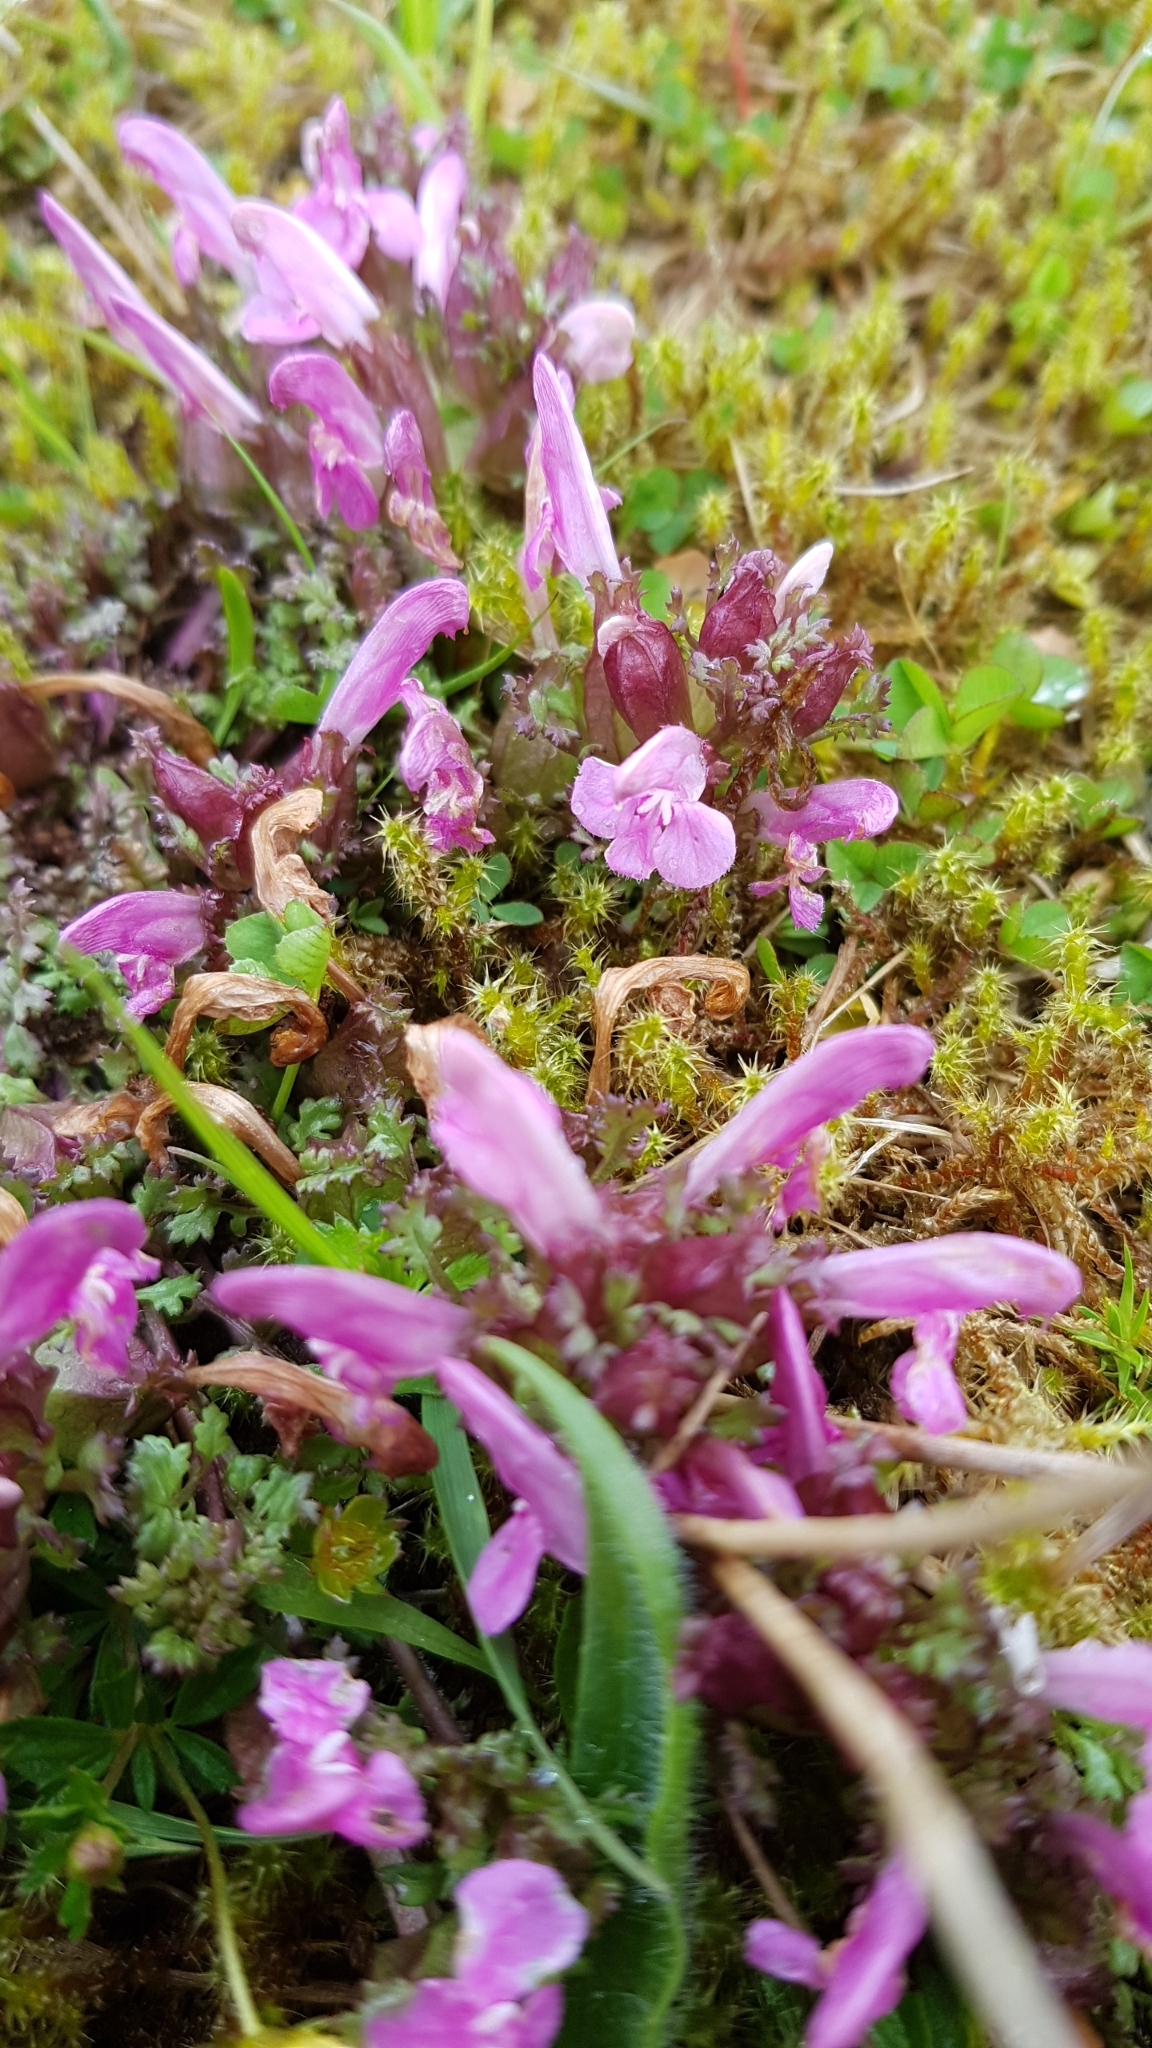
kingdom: Plantae
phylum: Tracheophyta
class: Magnoliopsida
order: Lamiales
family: Orobanchaceae
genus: Pedicularis
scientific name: Pedicularis sylvatica
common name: Lousewort
